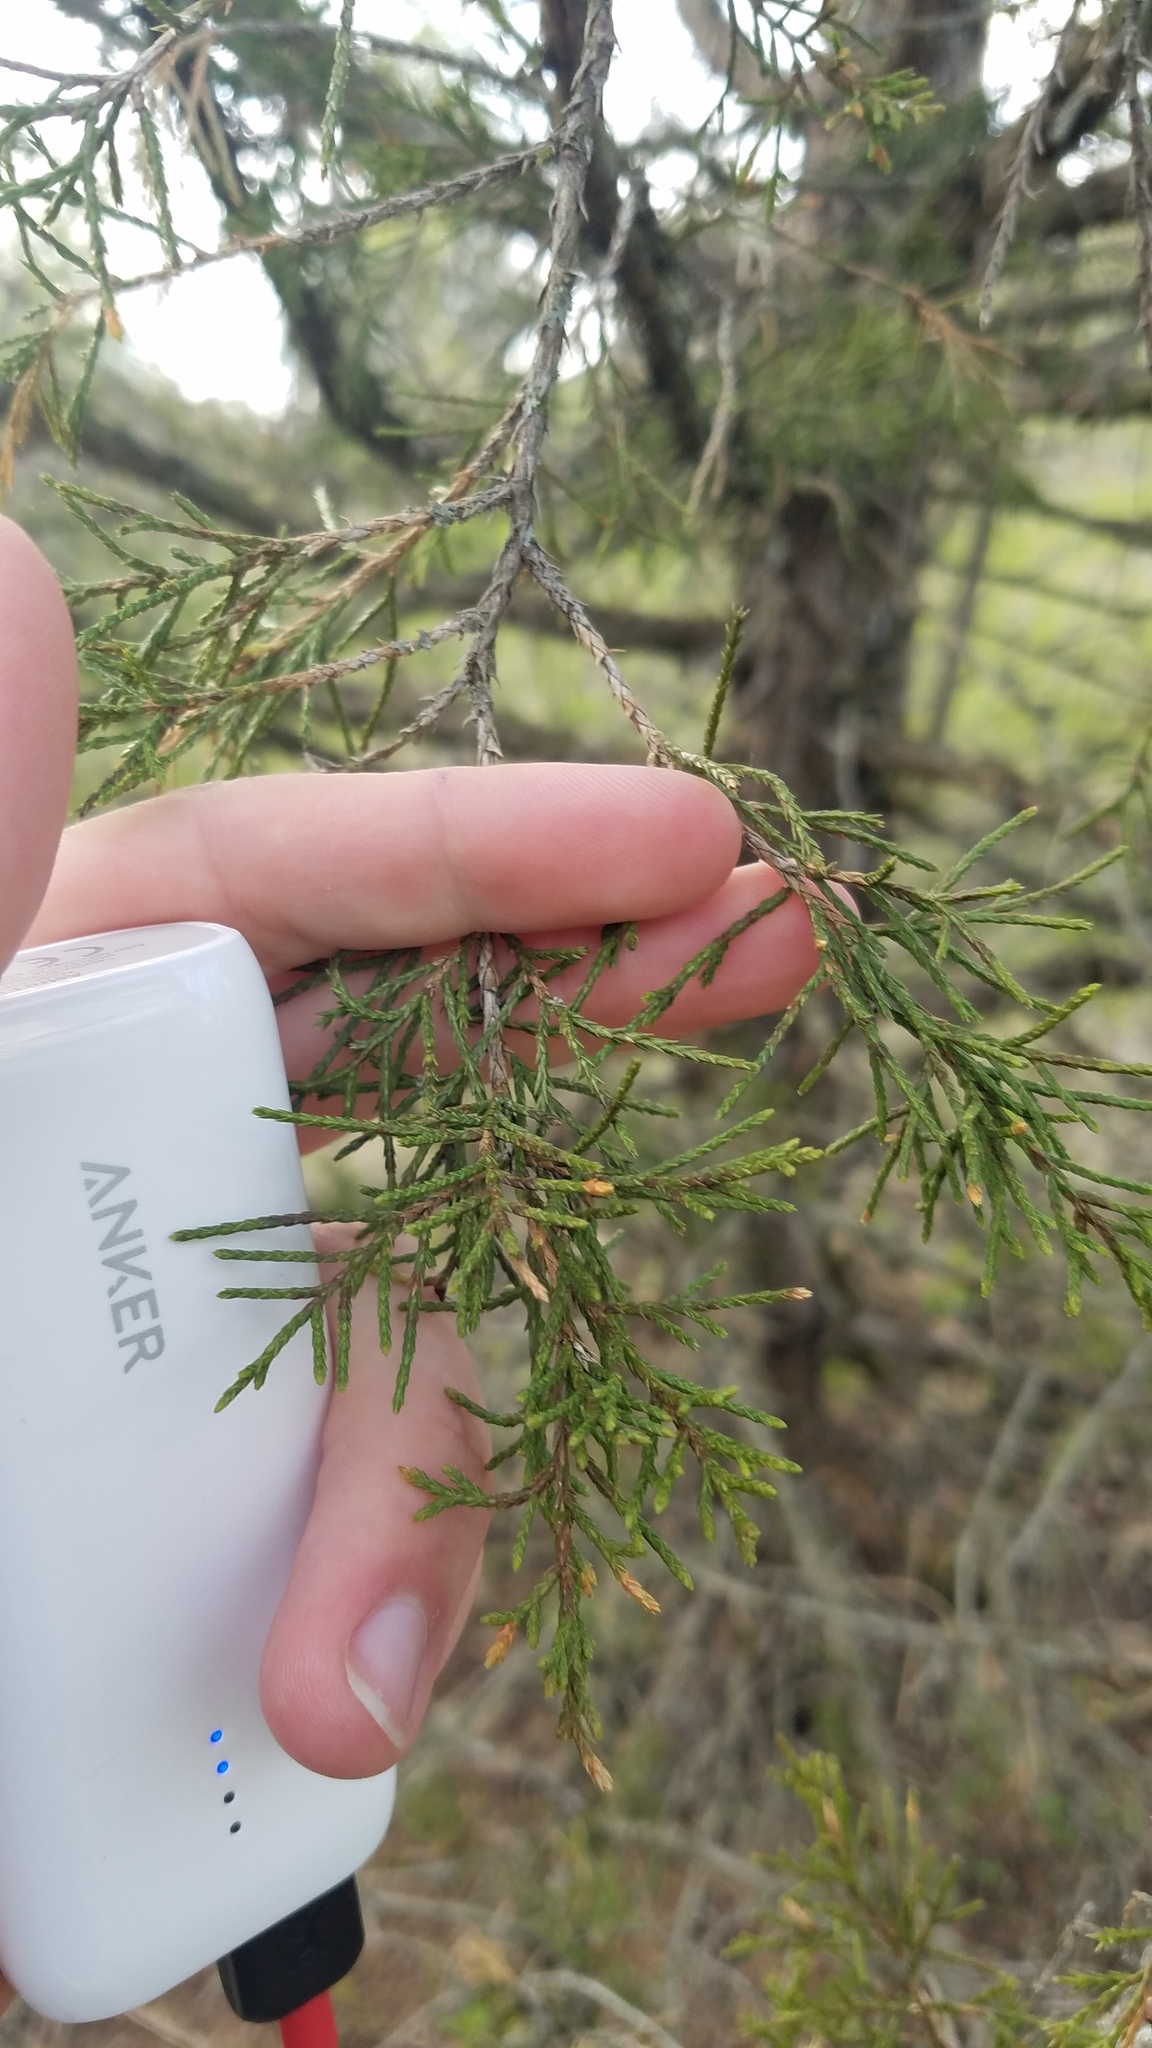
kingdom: Plantae
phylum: Tracheophyta
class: Pinopsida
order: Pinales
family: Cupressaceae
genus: Juniperus
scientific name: Juniperus virginiana
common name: Red juniper
